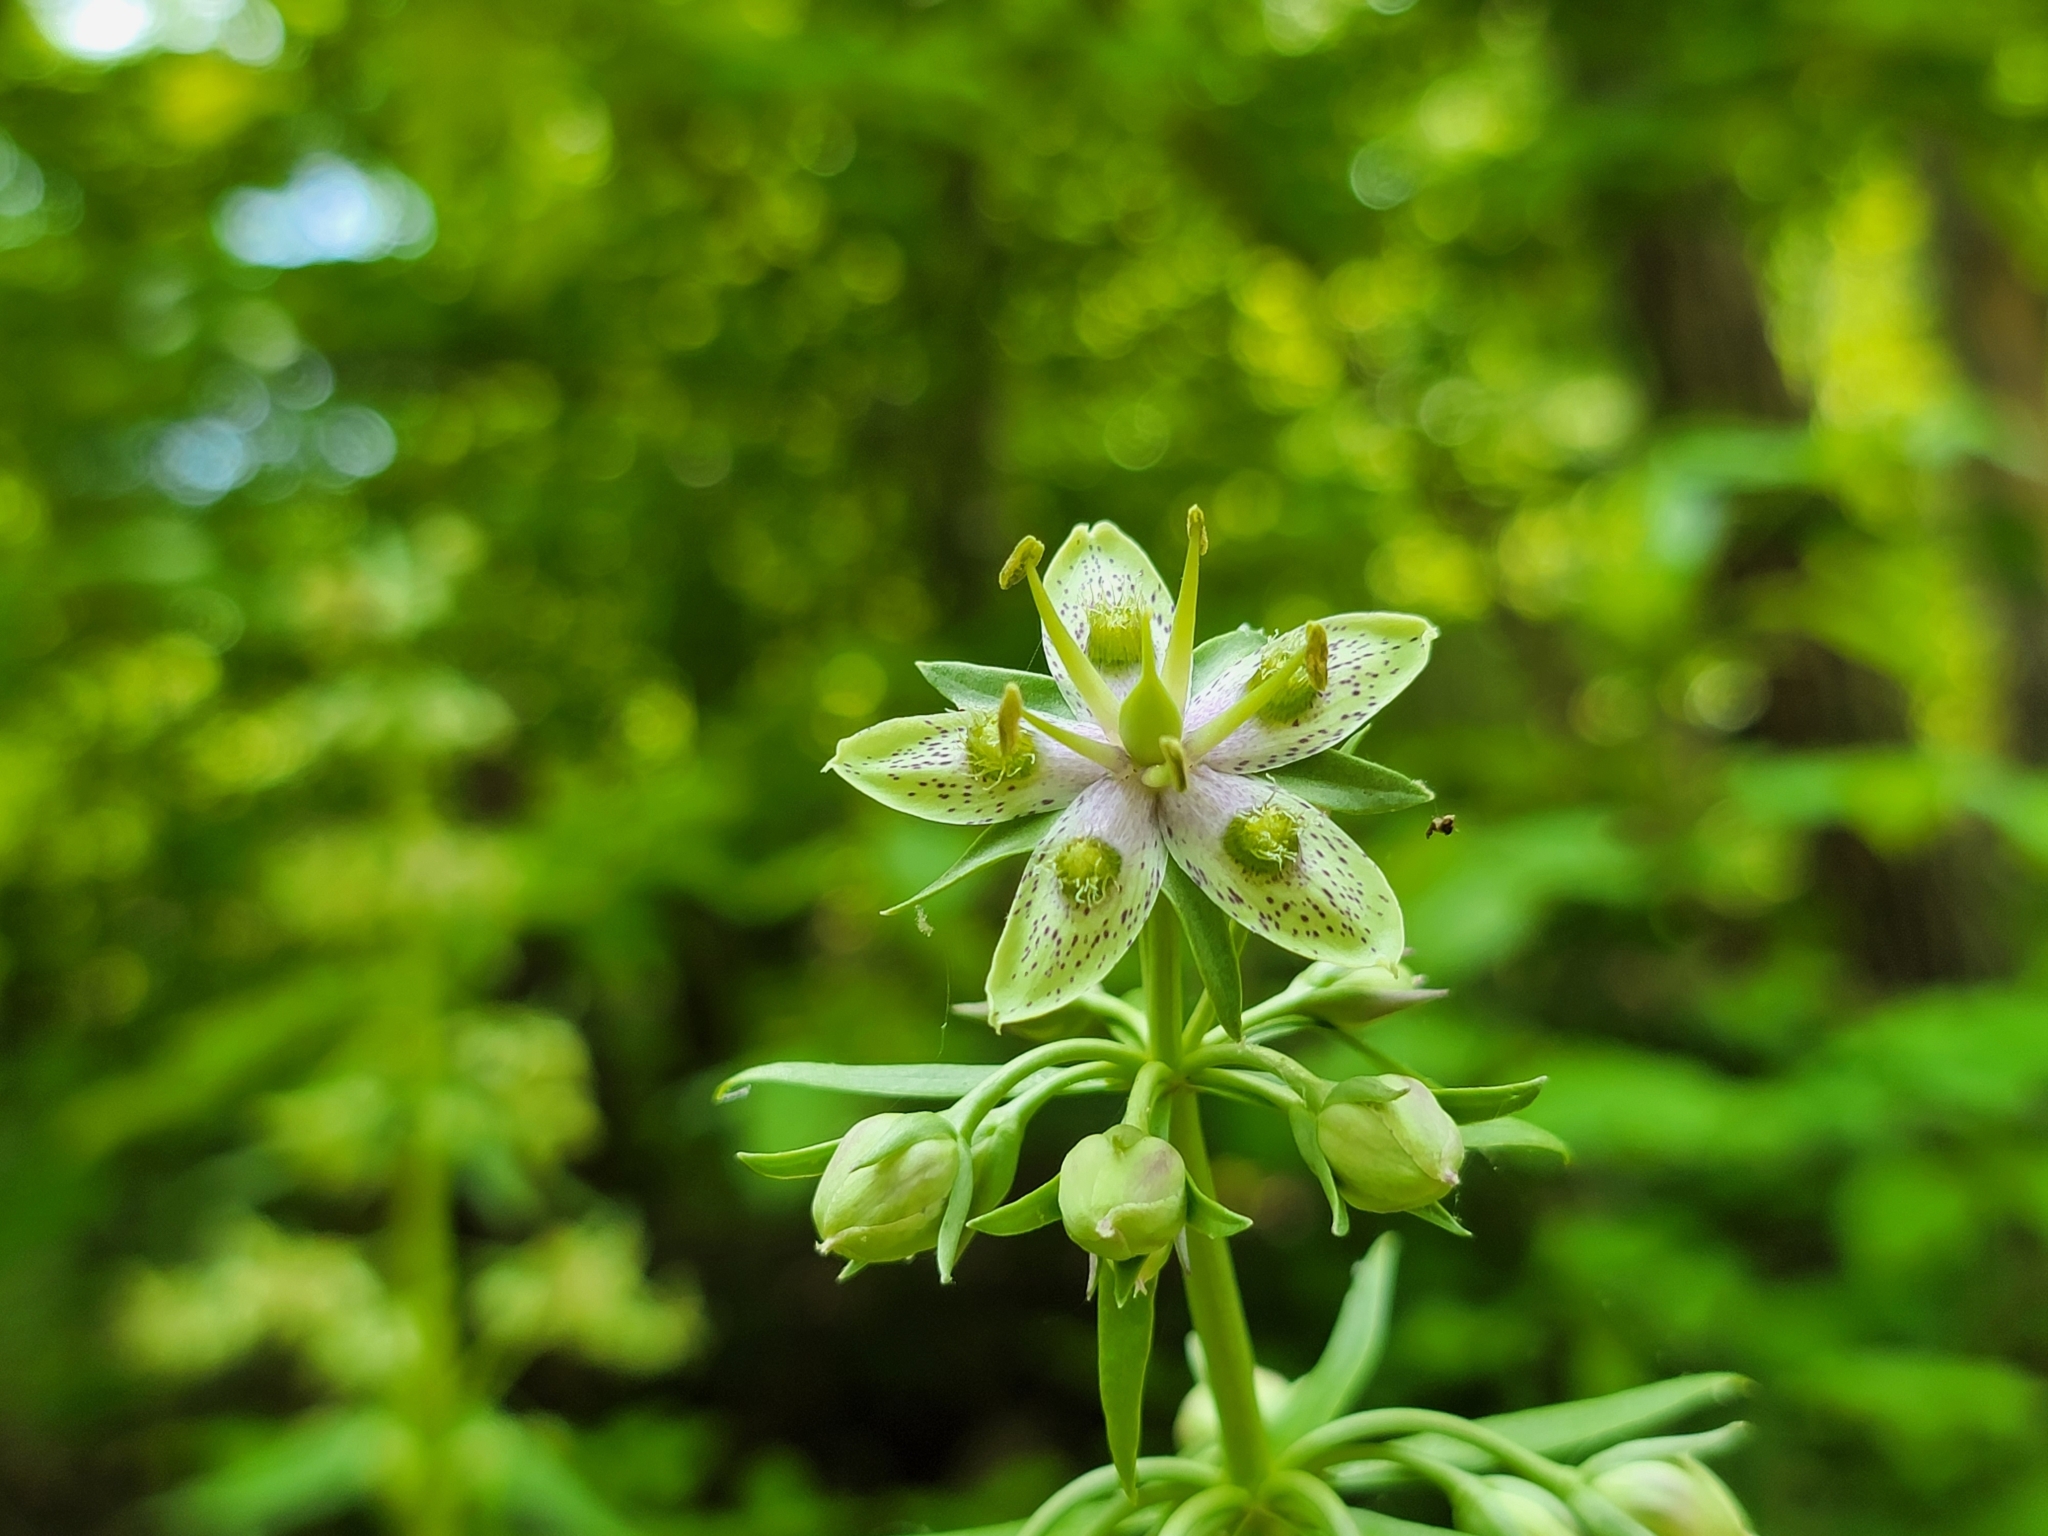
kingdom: Plantae
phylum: Tracheophyta
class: Magnoliopsida
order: Gentianales
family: Gentianaceae
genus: Frasera
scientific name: Frasera caroliniensis
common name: American columbo
